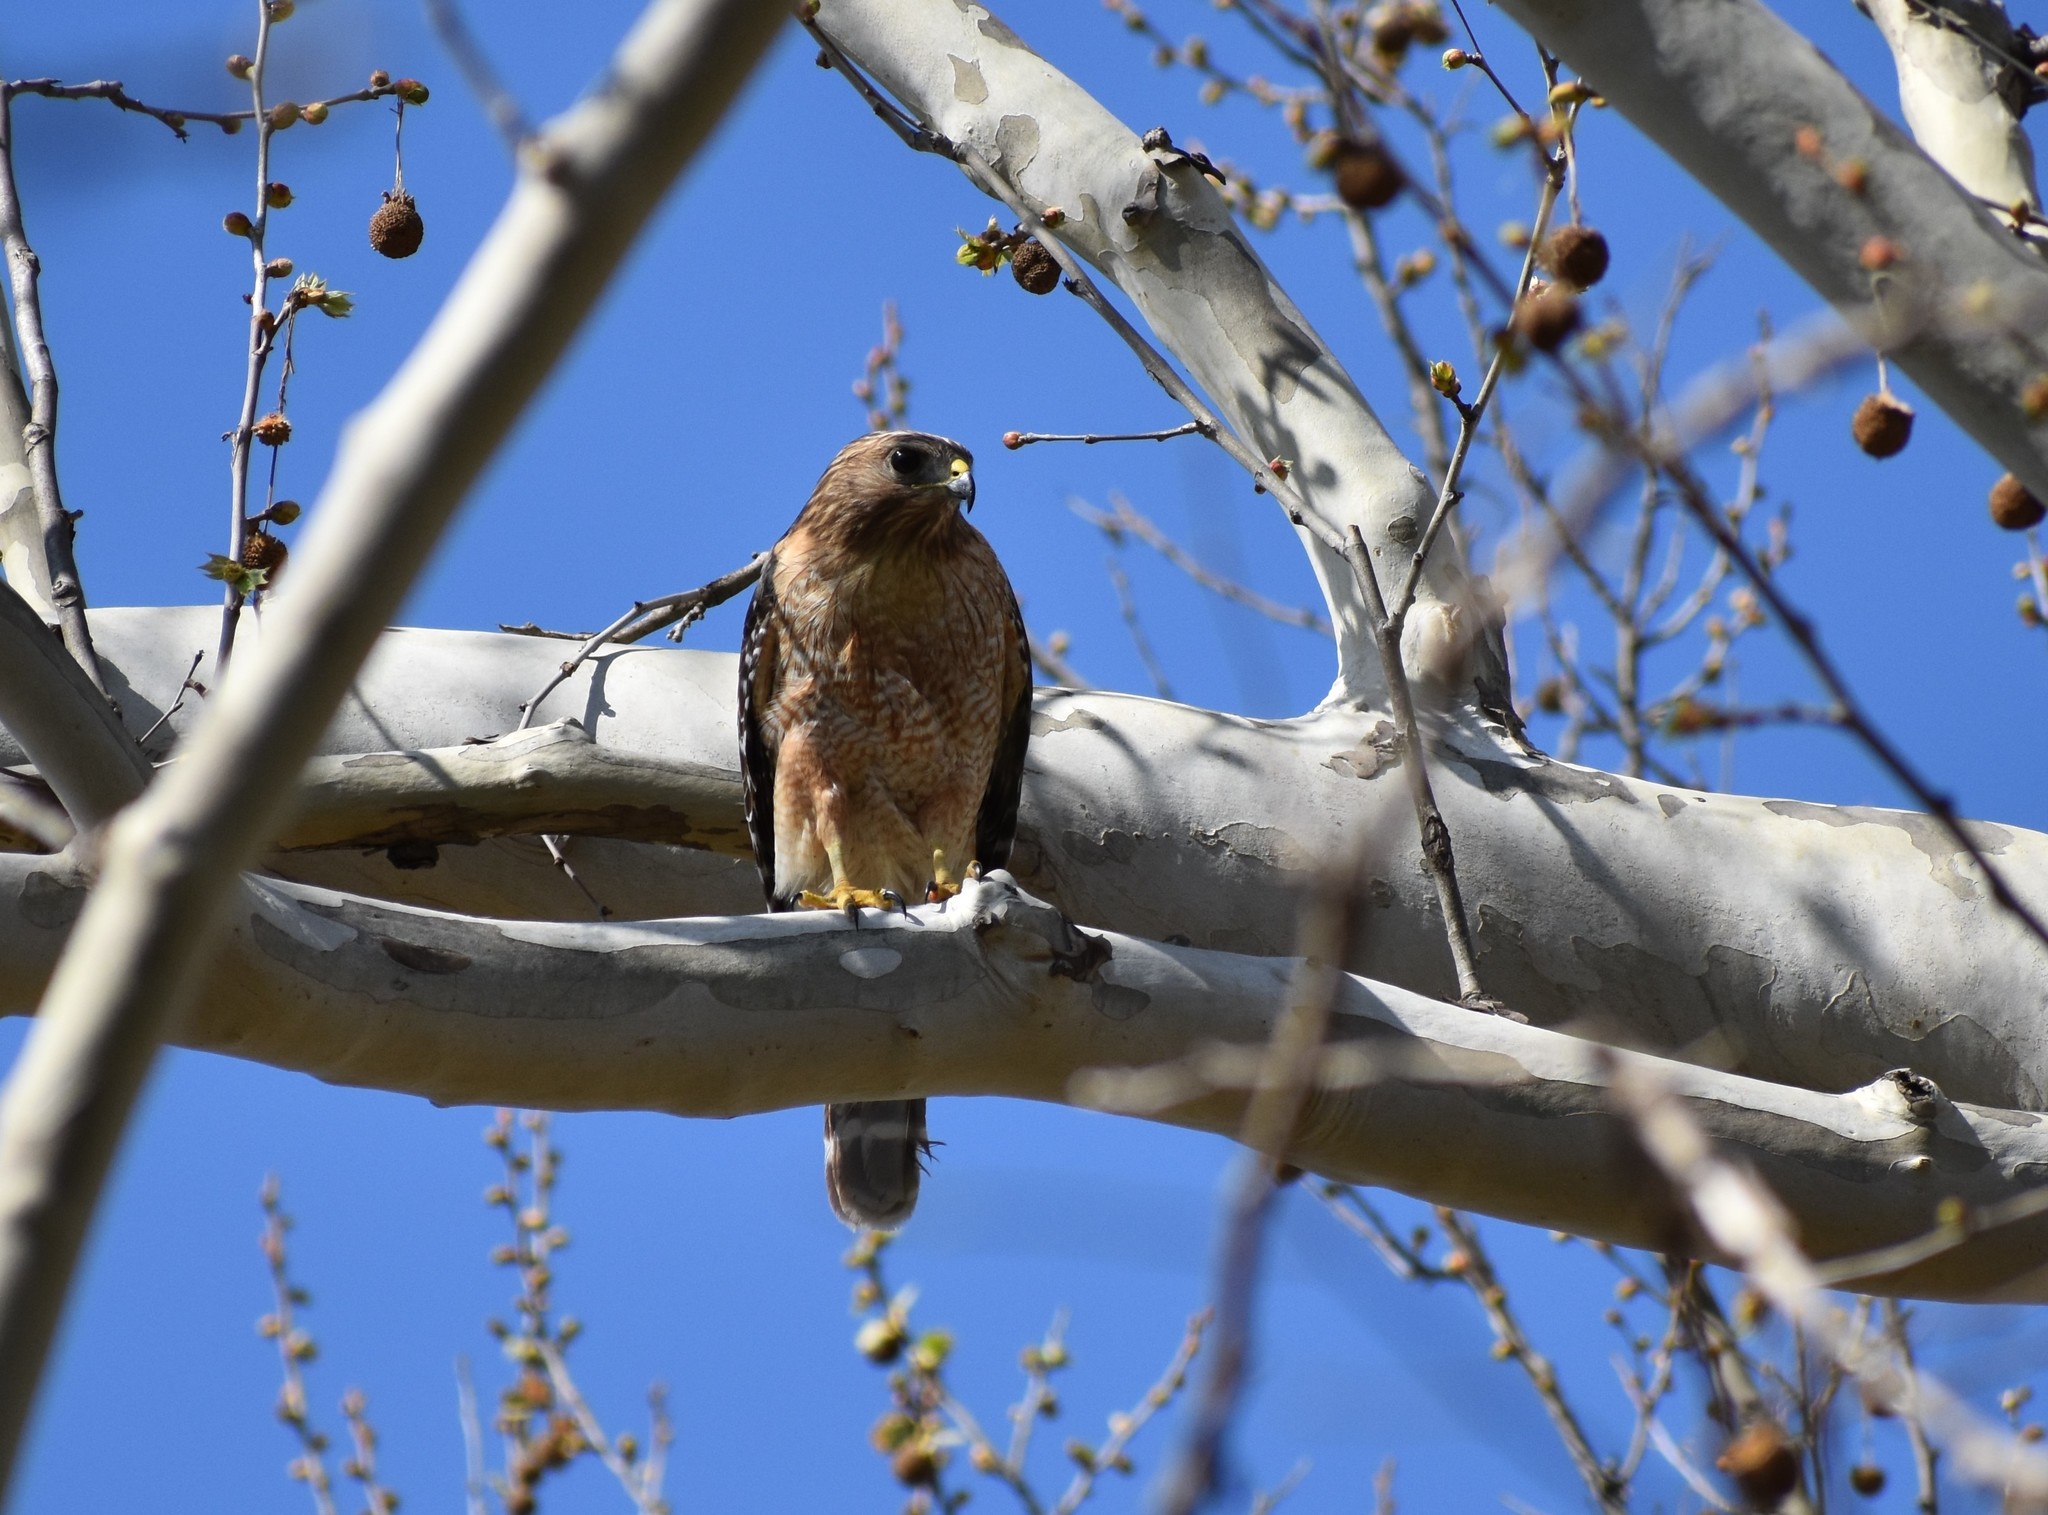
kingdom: Animalia
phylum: Chordata
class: Aves
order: Accipitriformes
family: Accipitridae
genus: Buteo
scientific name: Buteo lineatus
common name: Red-shouldered hawk
